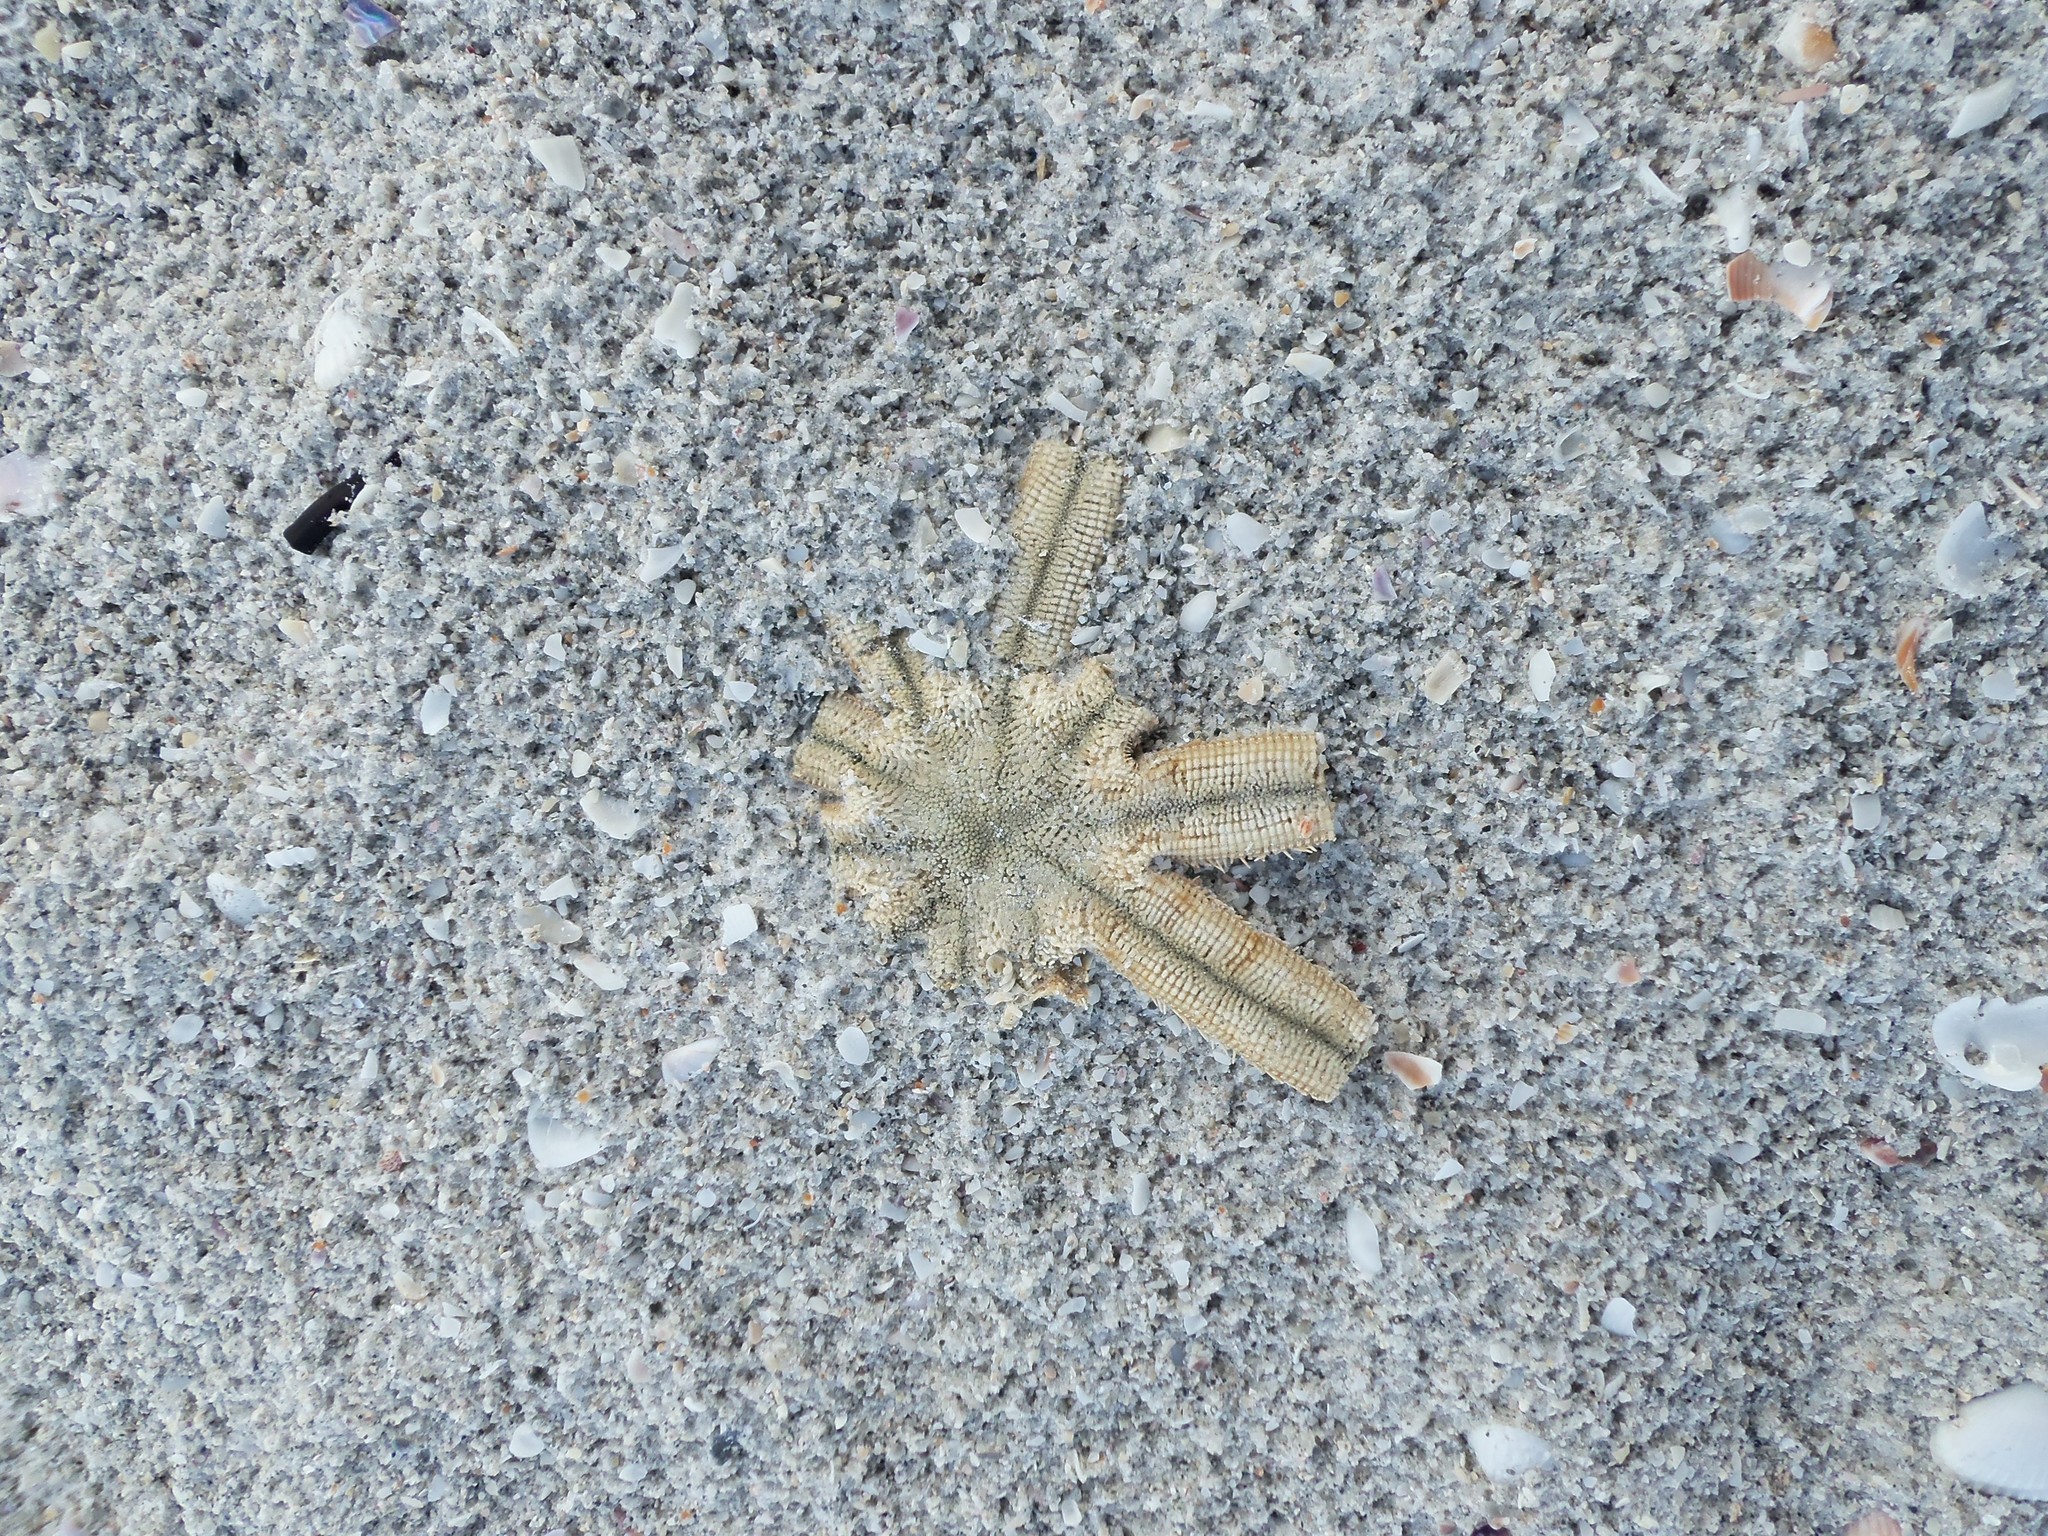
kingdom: Animalia
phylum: Echinodermata
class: Asteroidea
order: Paxillosida
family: Luidiidae
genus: Luidia
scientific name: Luidia senegalensis
